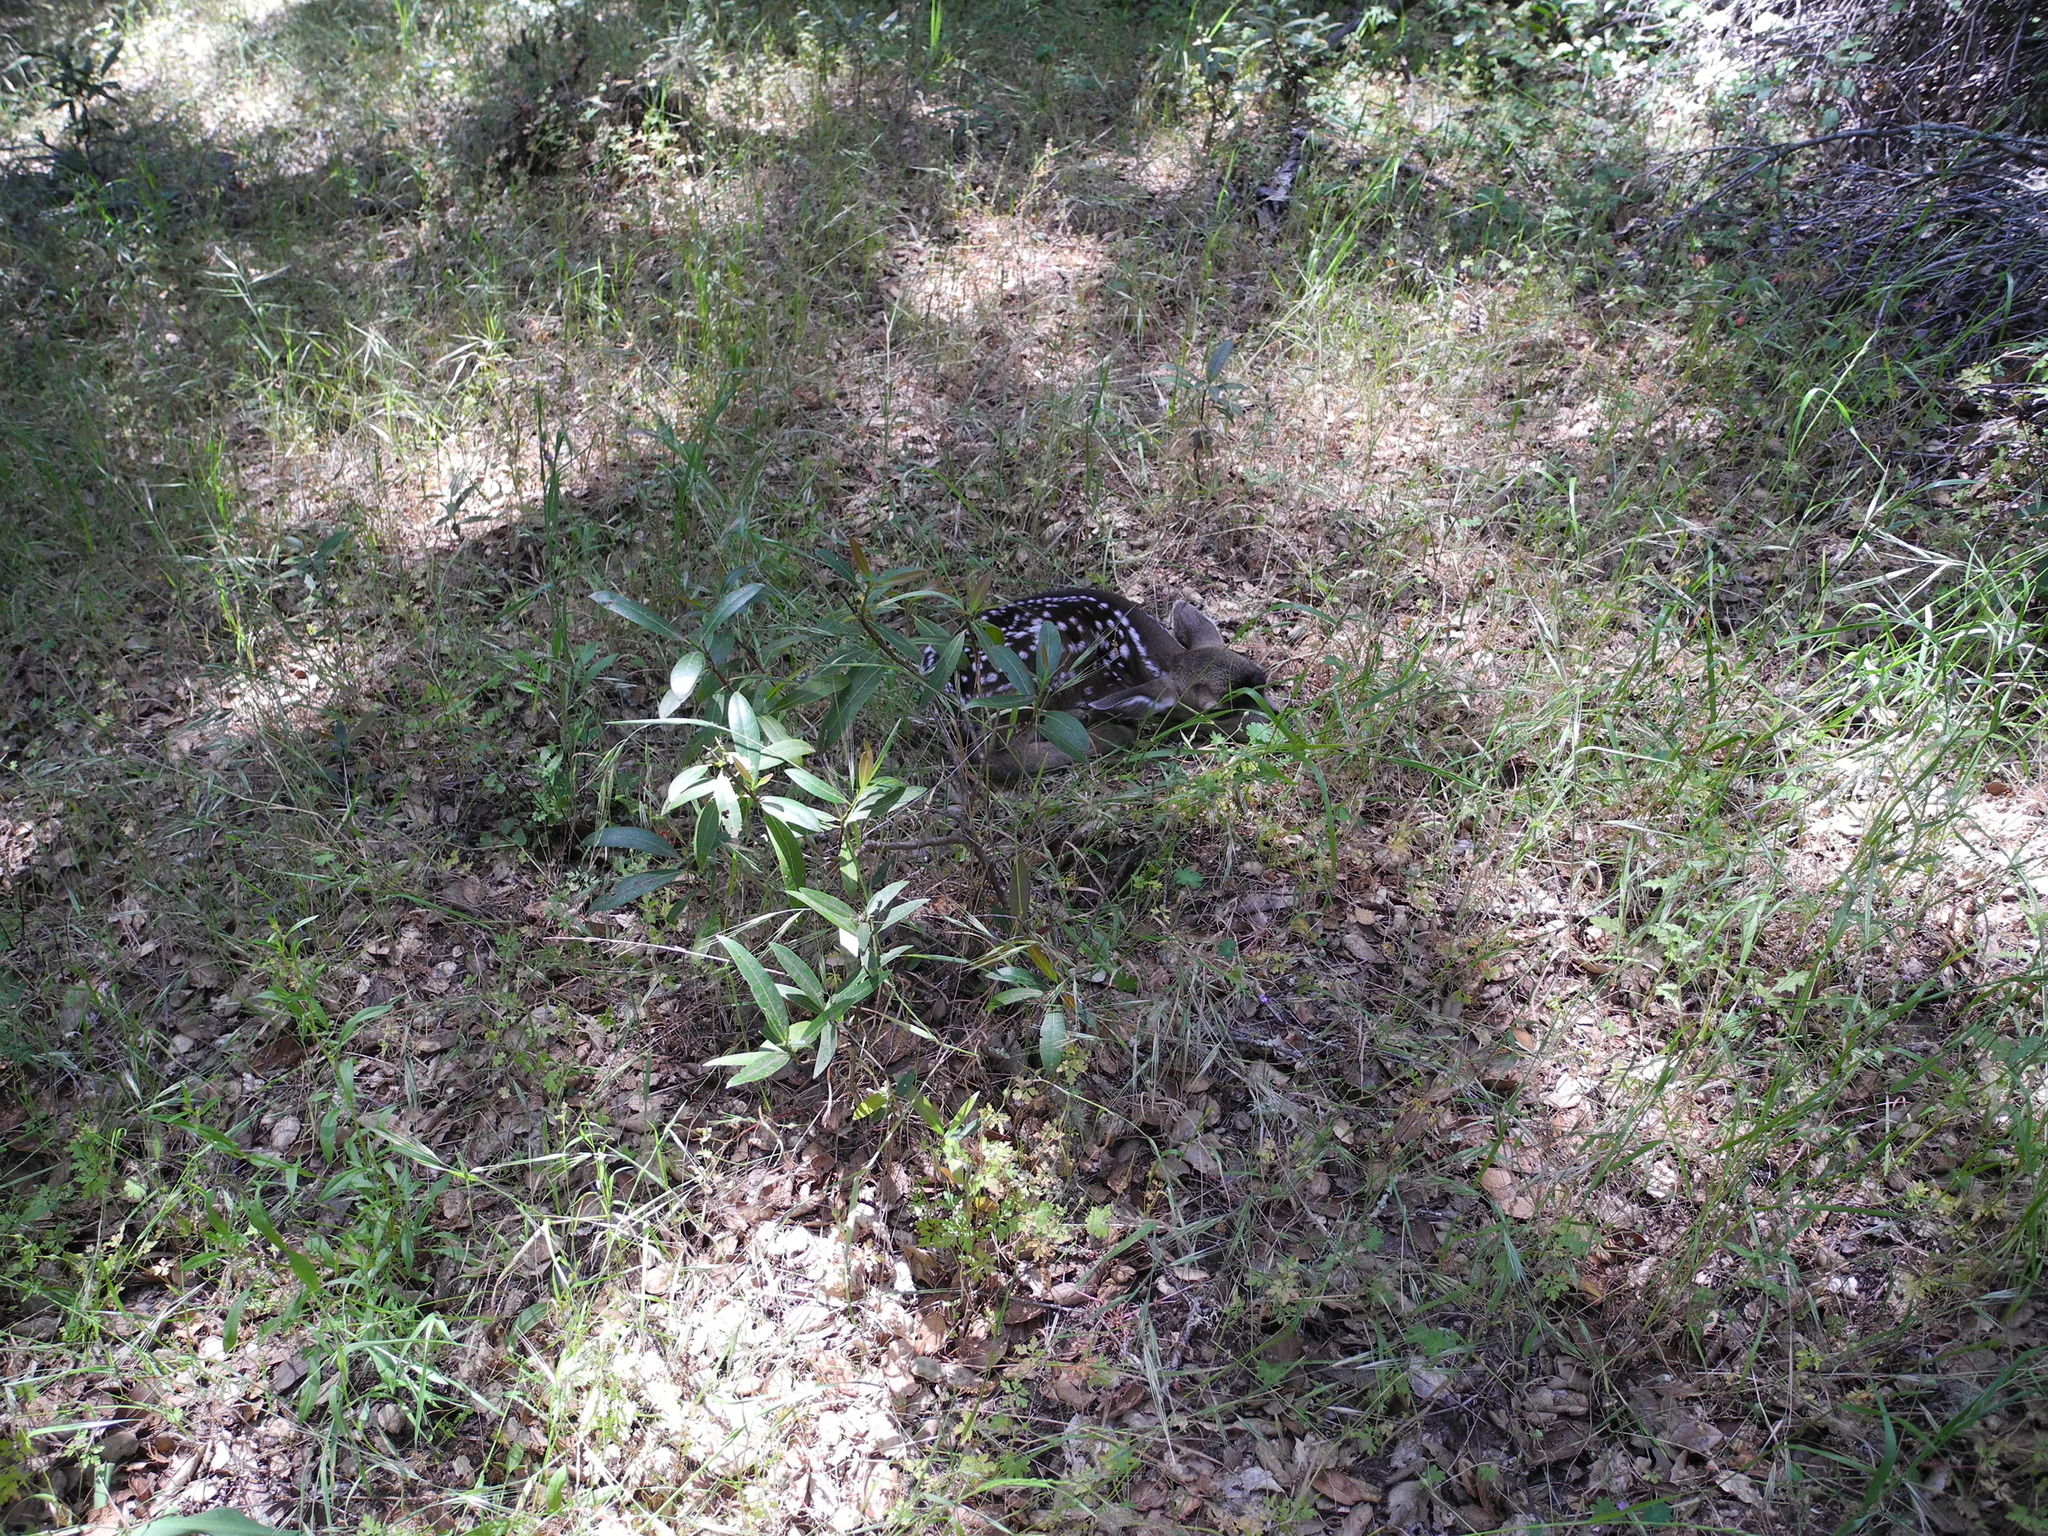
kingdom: Animalia
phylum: Chordata
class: Mammalia
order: Artiodactyla
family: Cervidae
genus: Odocoileus
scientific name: Odocoileus hemionus
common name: Mule deer
